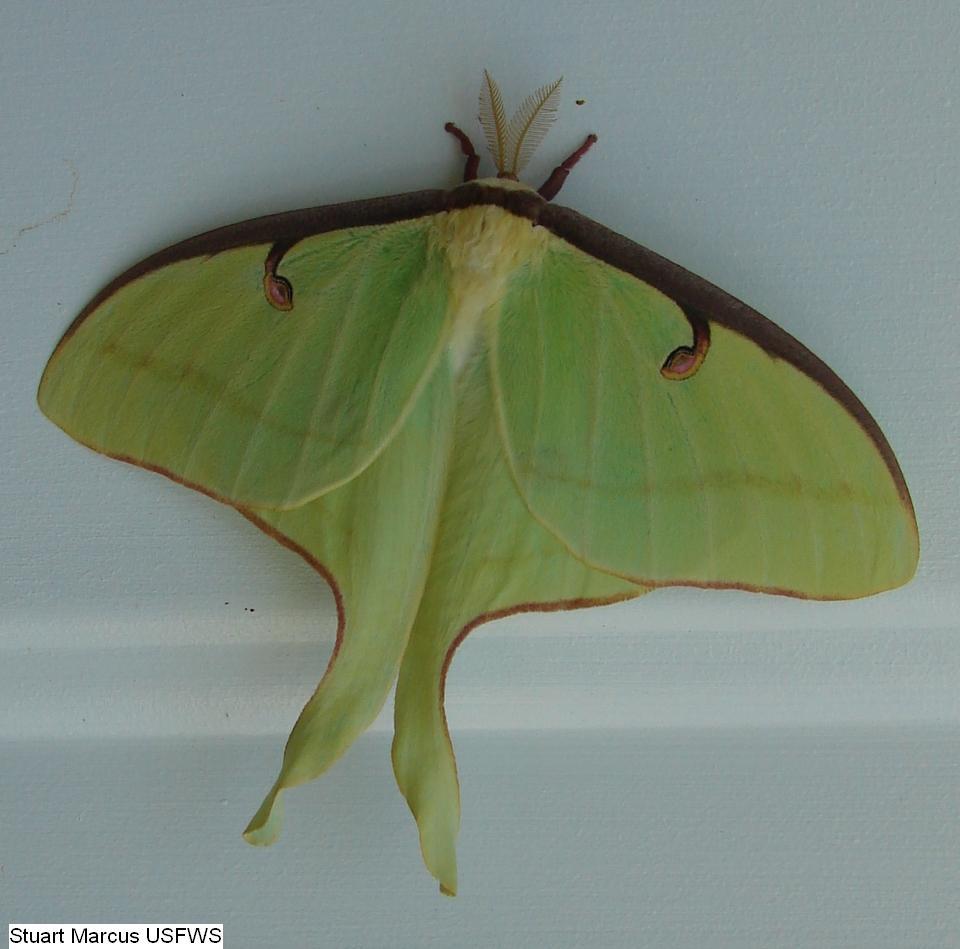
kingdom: Animalia
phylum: Arthropoda
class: Insecta
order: Lepidoptera
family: Saturniidae
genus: Actias
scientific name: Actias luna
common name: Luna moth
